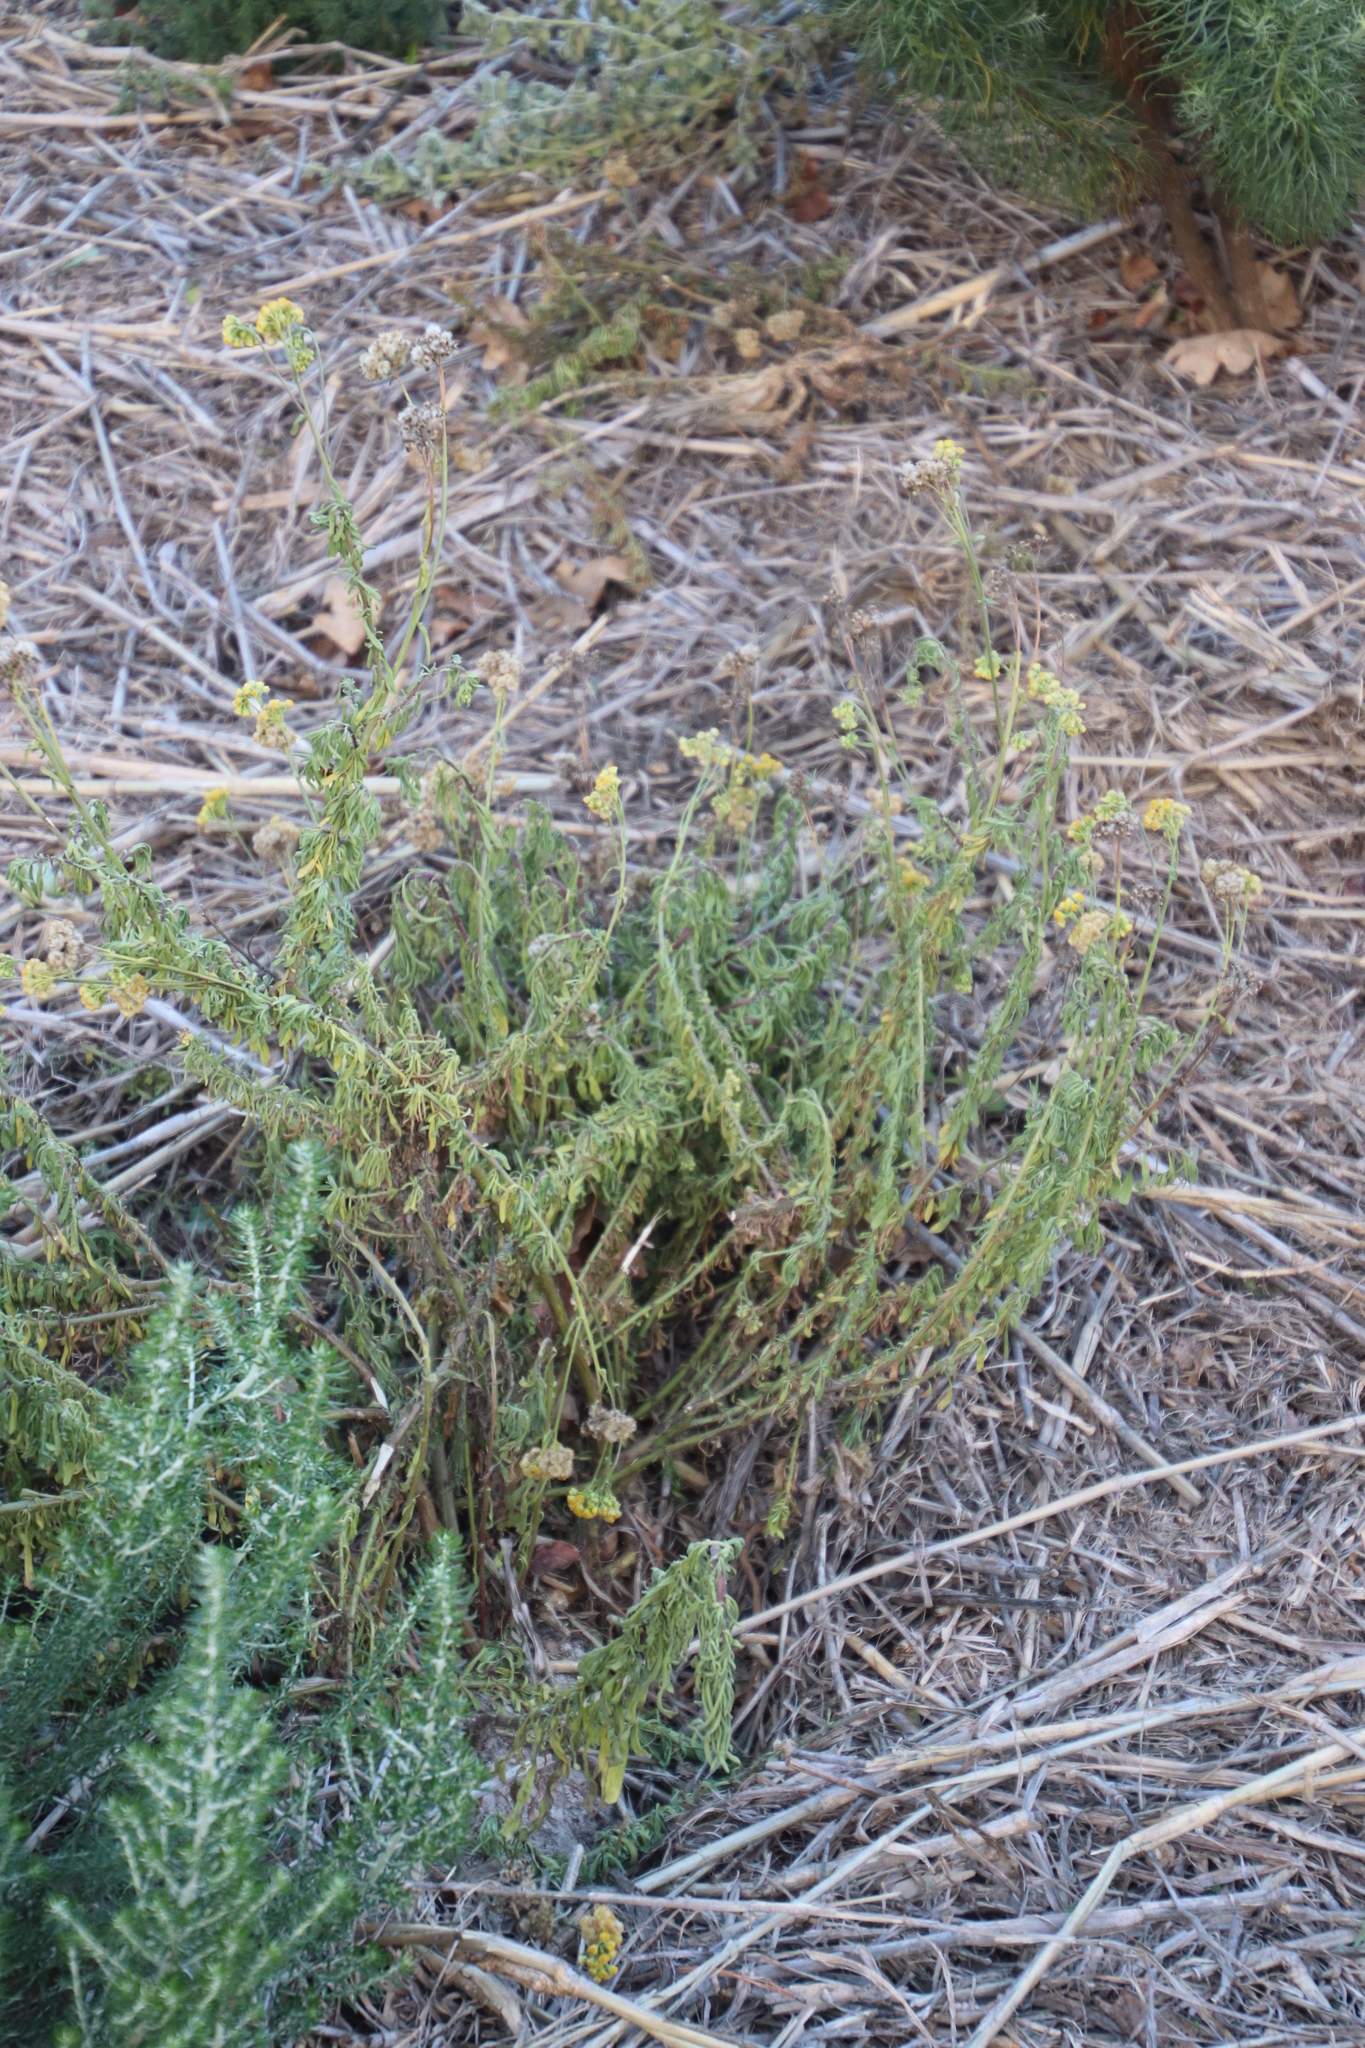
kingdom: Plantae
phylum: Tracheophyta
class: Magnoliopsida
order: Asterales
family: Asteraceae
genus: Nidorella
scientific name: Nidorella foetida
